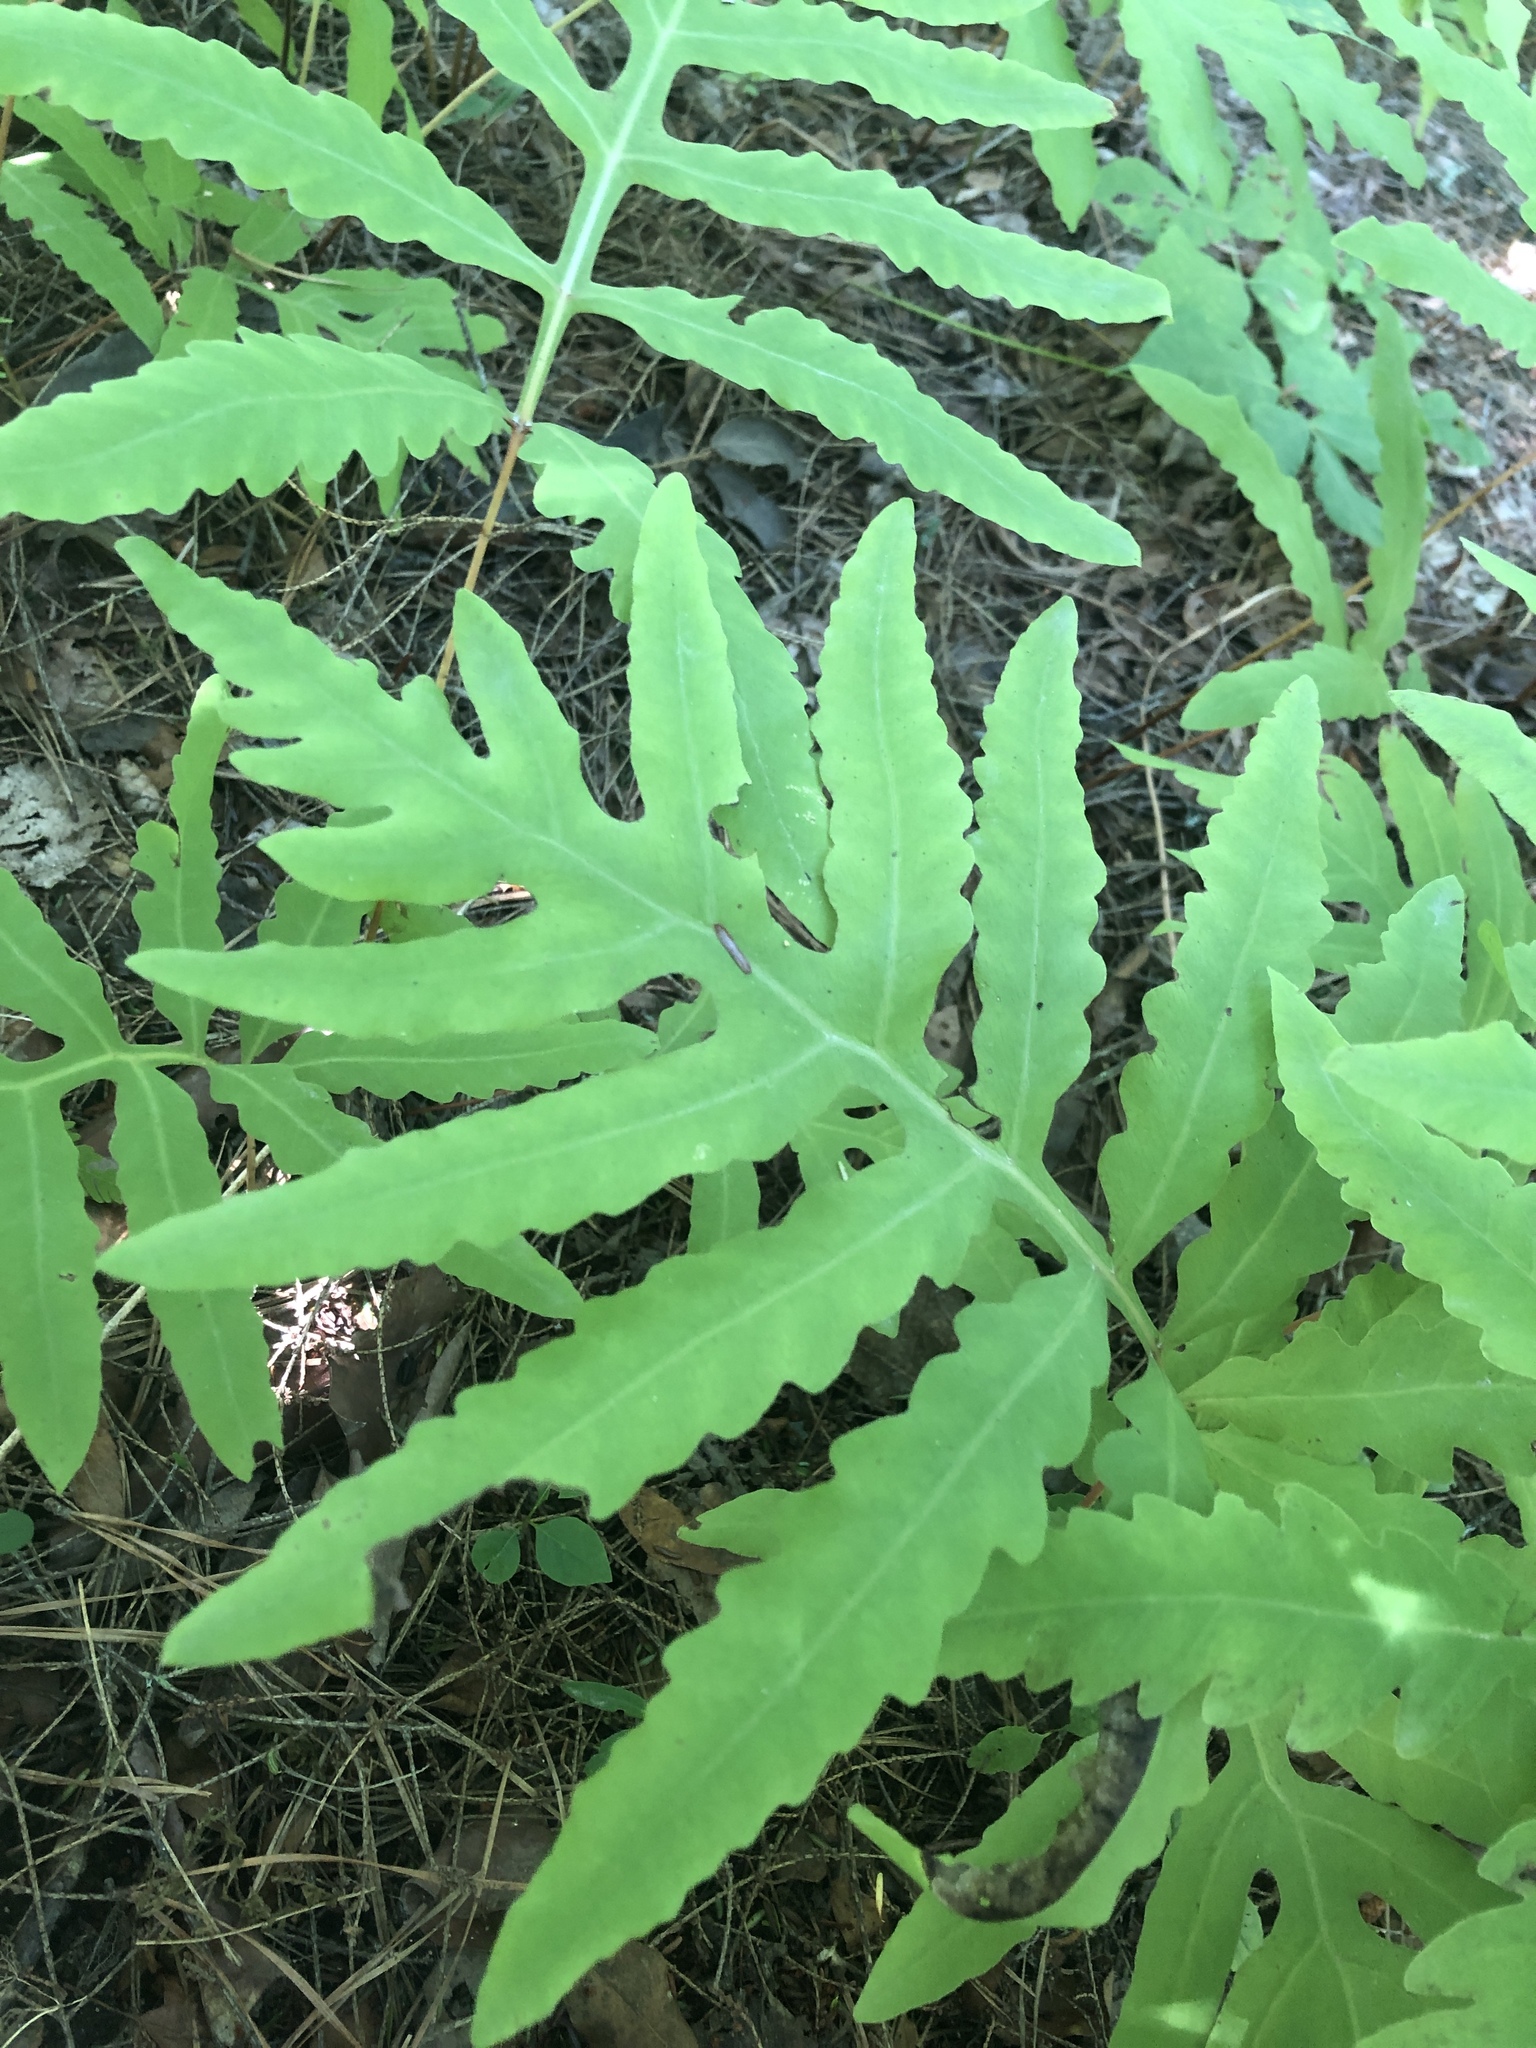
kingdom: Plantae
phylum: Tracheophyta
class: Polypodiopsida
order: Polypodiales
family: Onocleaceae
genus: Onoclea
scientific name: Onoclea sensibilis
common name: Sensitive fern
